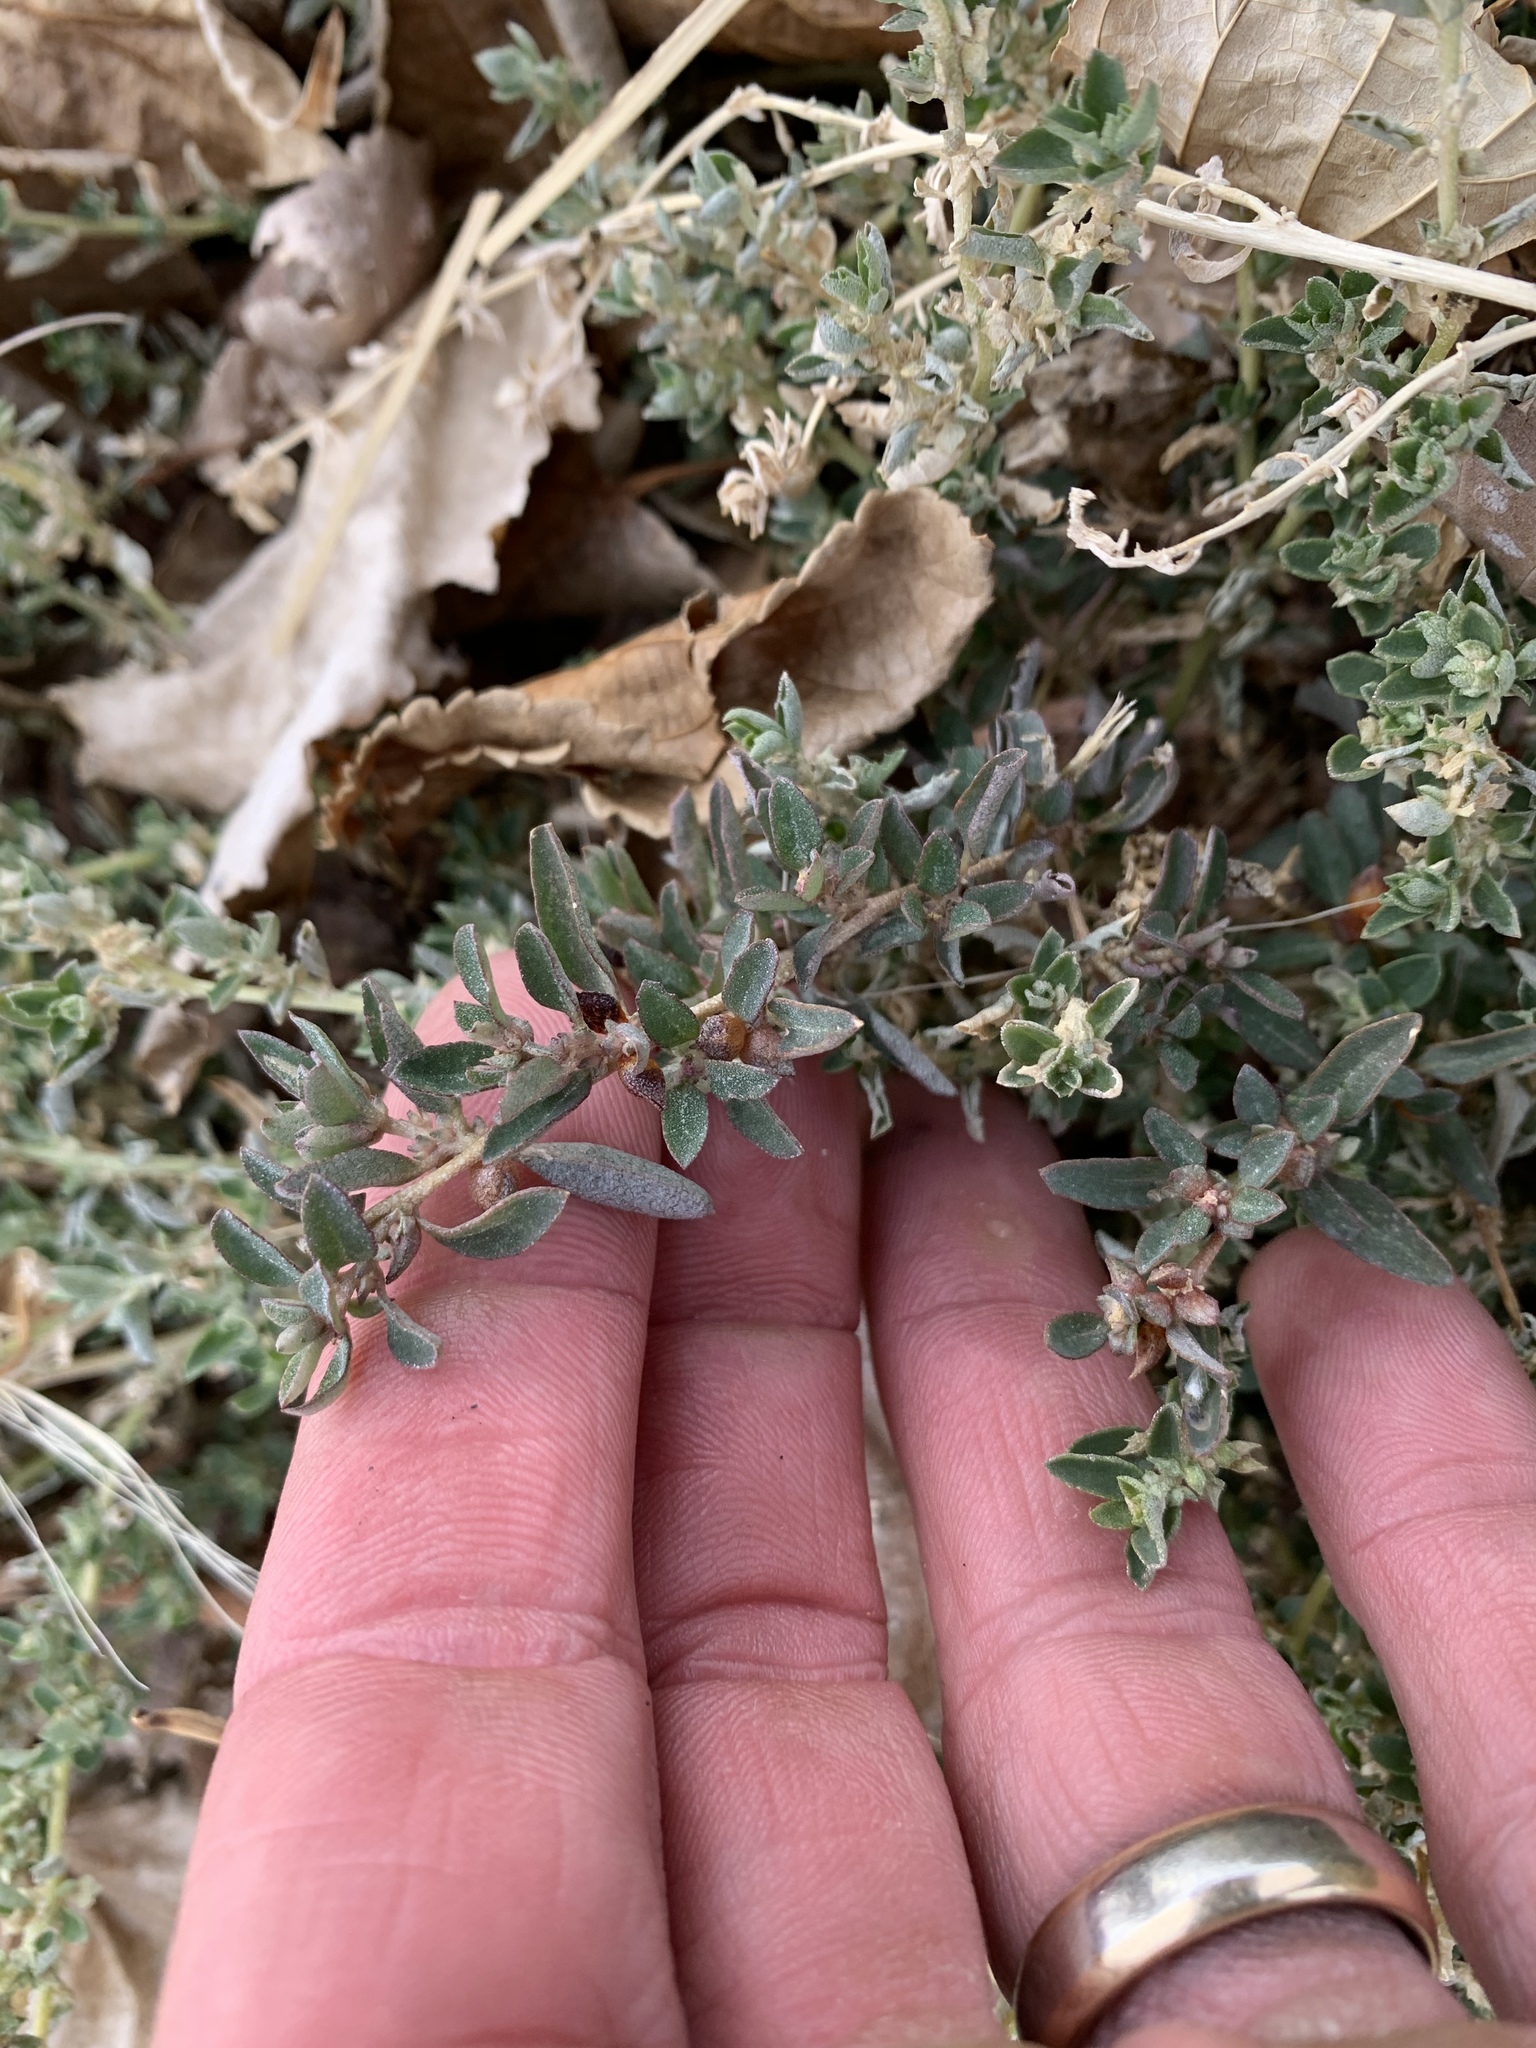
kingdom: Plantae
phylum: Tracheophyta
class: Magnoliopsida
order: Caryophyllales
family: Amaranthaceae
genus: Atriplex
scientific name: Atriplex semibaccata
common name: Australian saltbush
